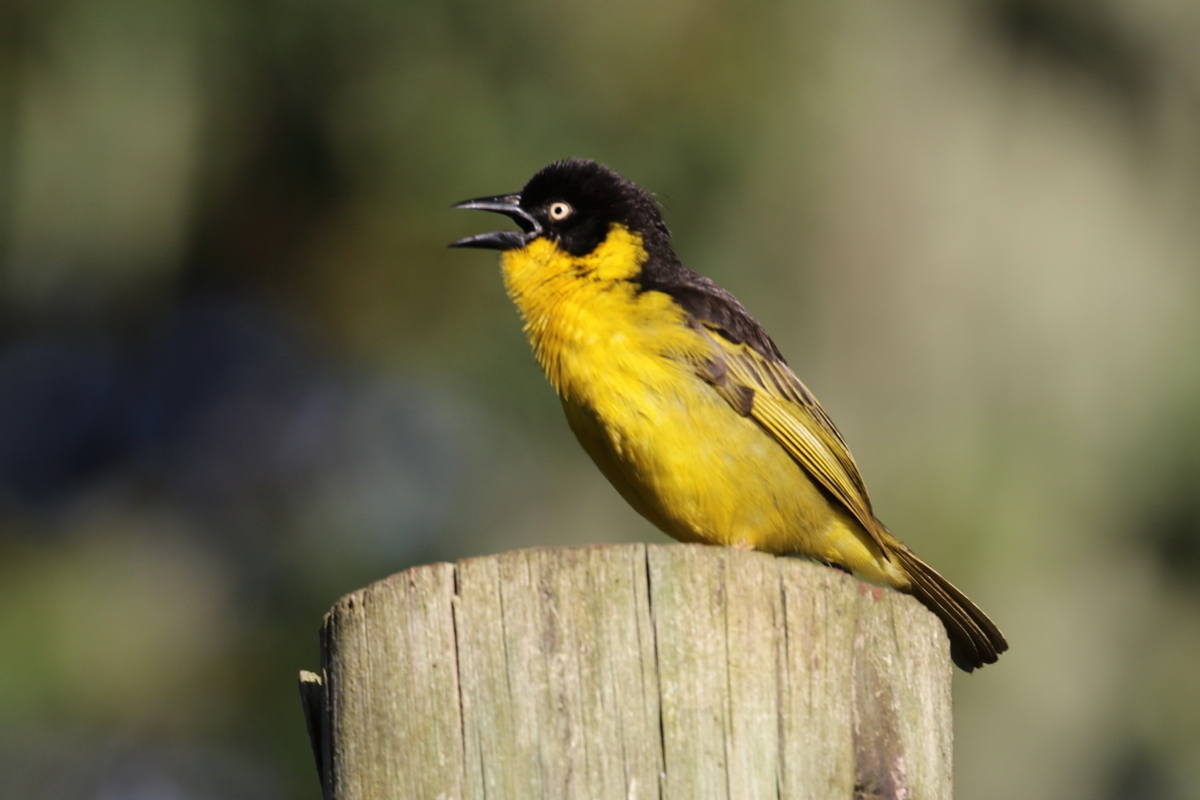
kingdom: Animalia
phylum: Chordata
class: Aves
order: Passeriformes
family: Ploceidae
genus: Ploceus
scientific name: Ploceus baglafecht
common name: Baglafecht weaver
